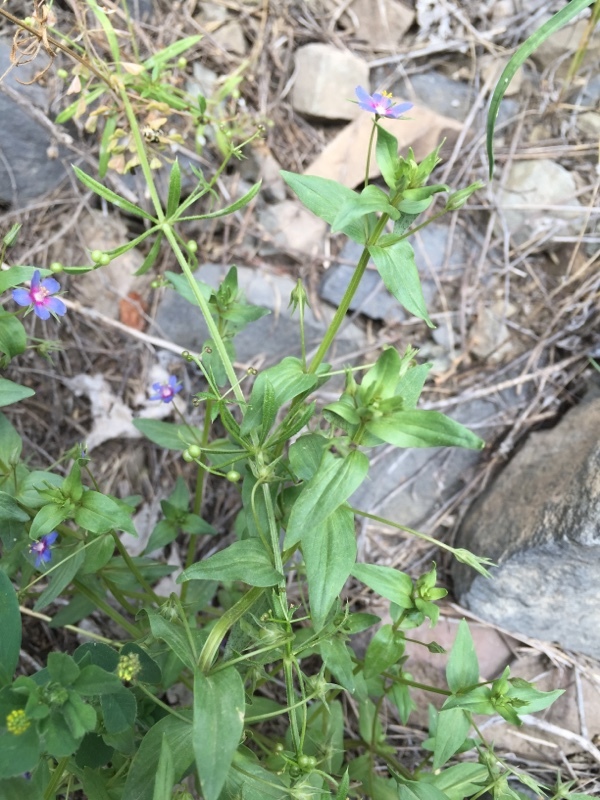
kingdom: Plantae
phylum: Tracheophyta
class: Magnoliopsida
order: Ericales
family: Primulaceae
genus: Lysimachia
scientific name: Lysimachia foemina
